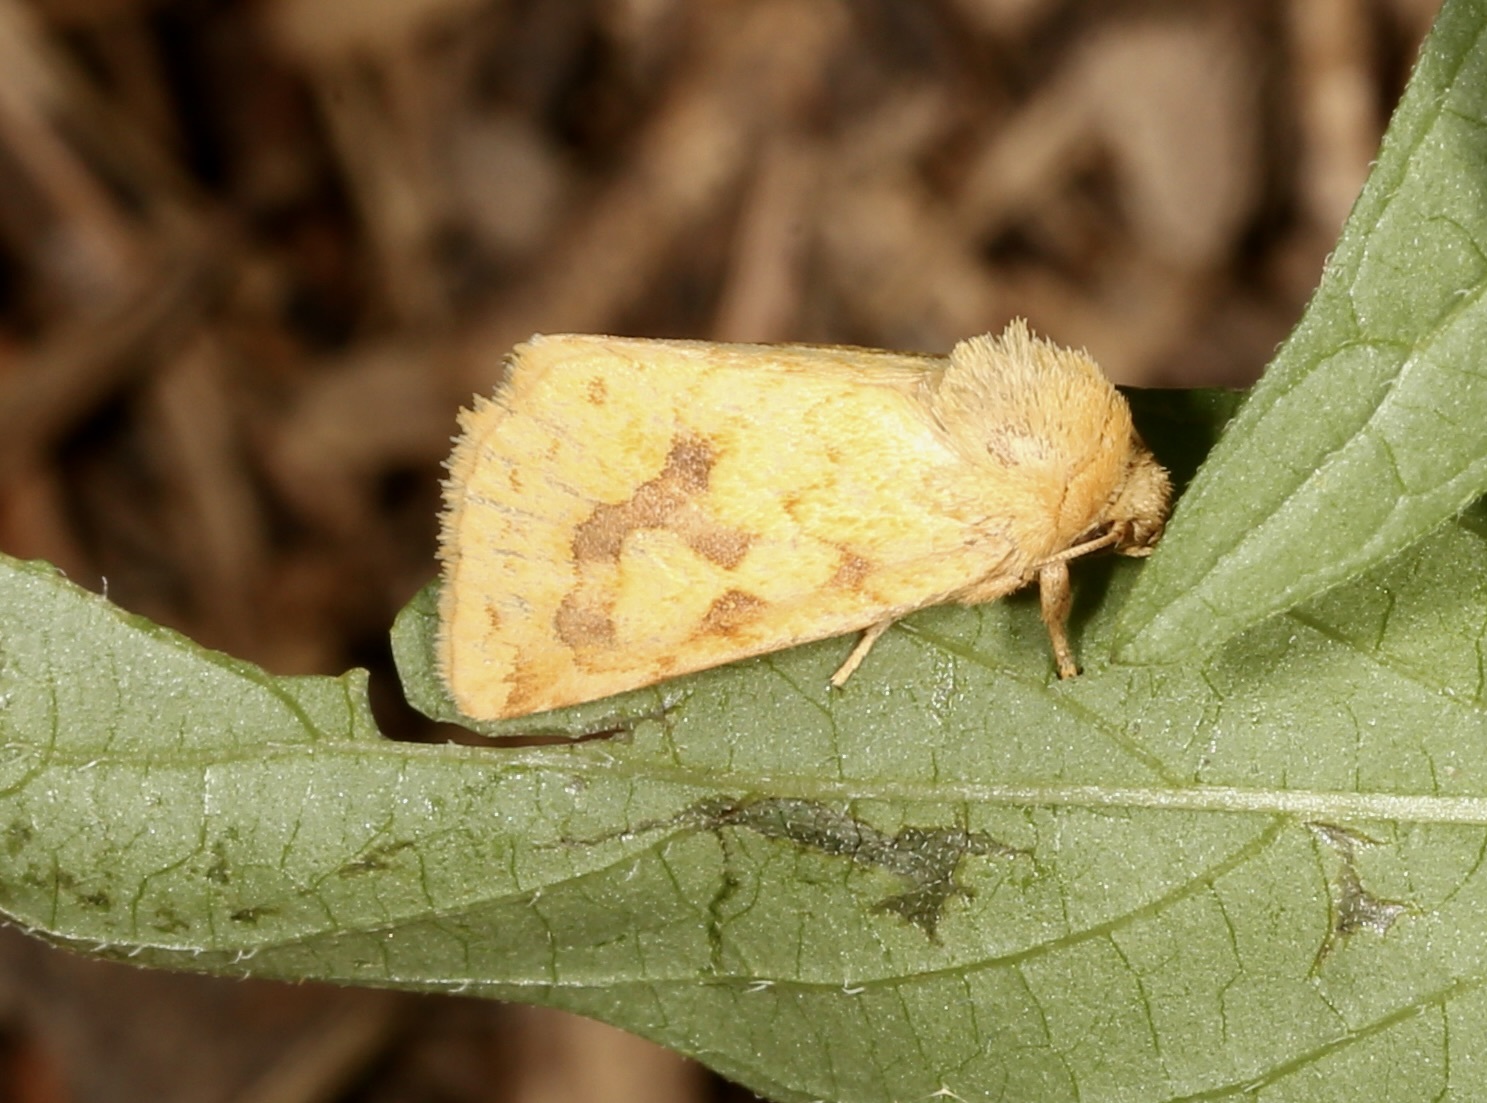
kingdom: Animalia
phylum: Arthropoda
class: Insecta
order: Lepidoptera
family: Noctuidae
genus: Nocloa
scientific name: Nocloa cordova
